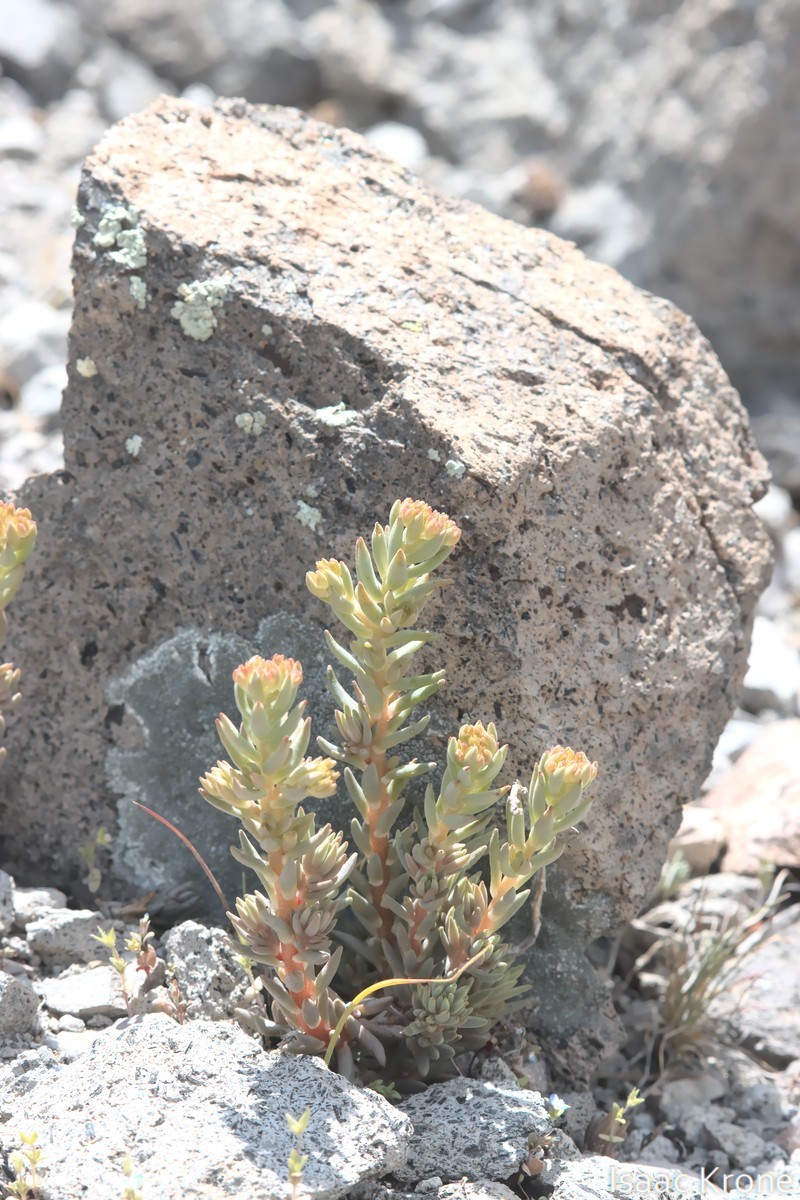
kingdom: Plantae
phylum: Tracheophyta
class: Magnoliopsida
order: Saxifragales
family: Crassulaceae
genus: Sedum
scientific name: Sedum lanceolatum
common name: Common stonecrop
